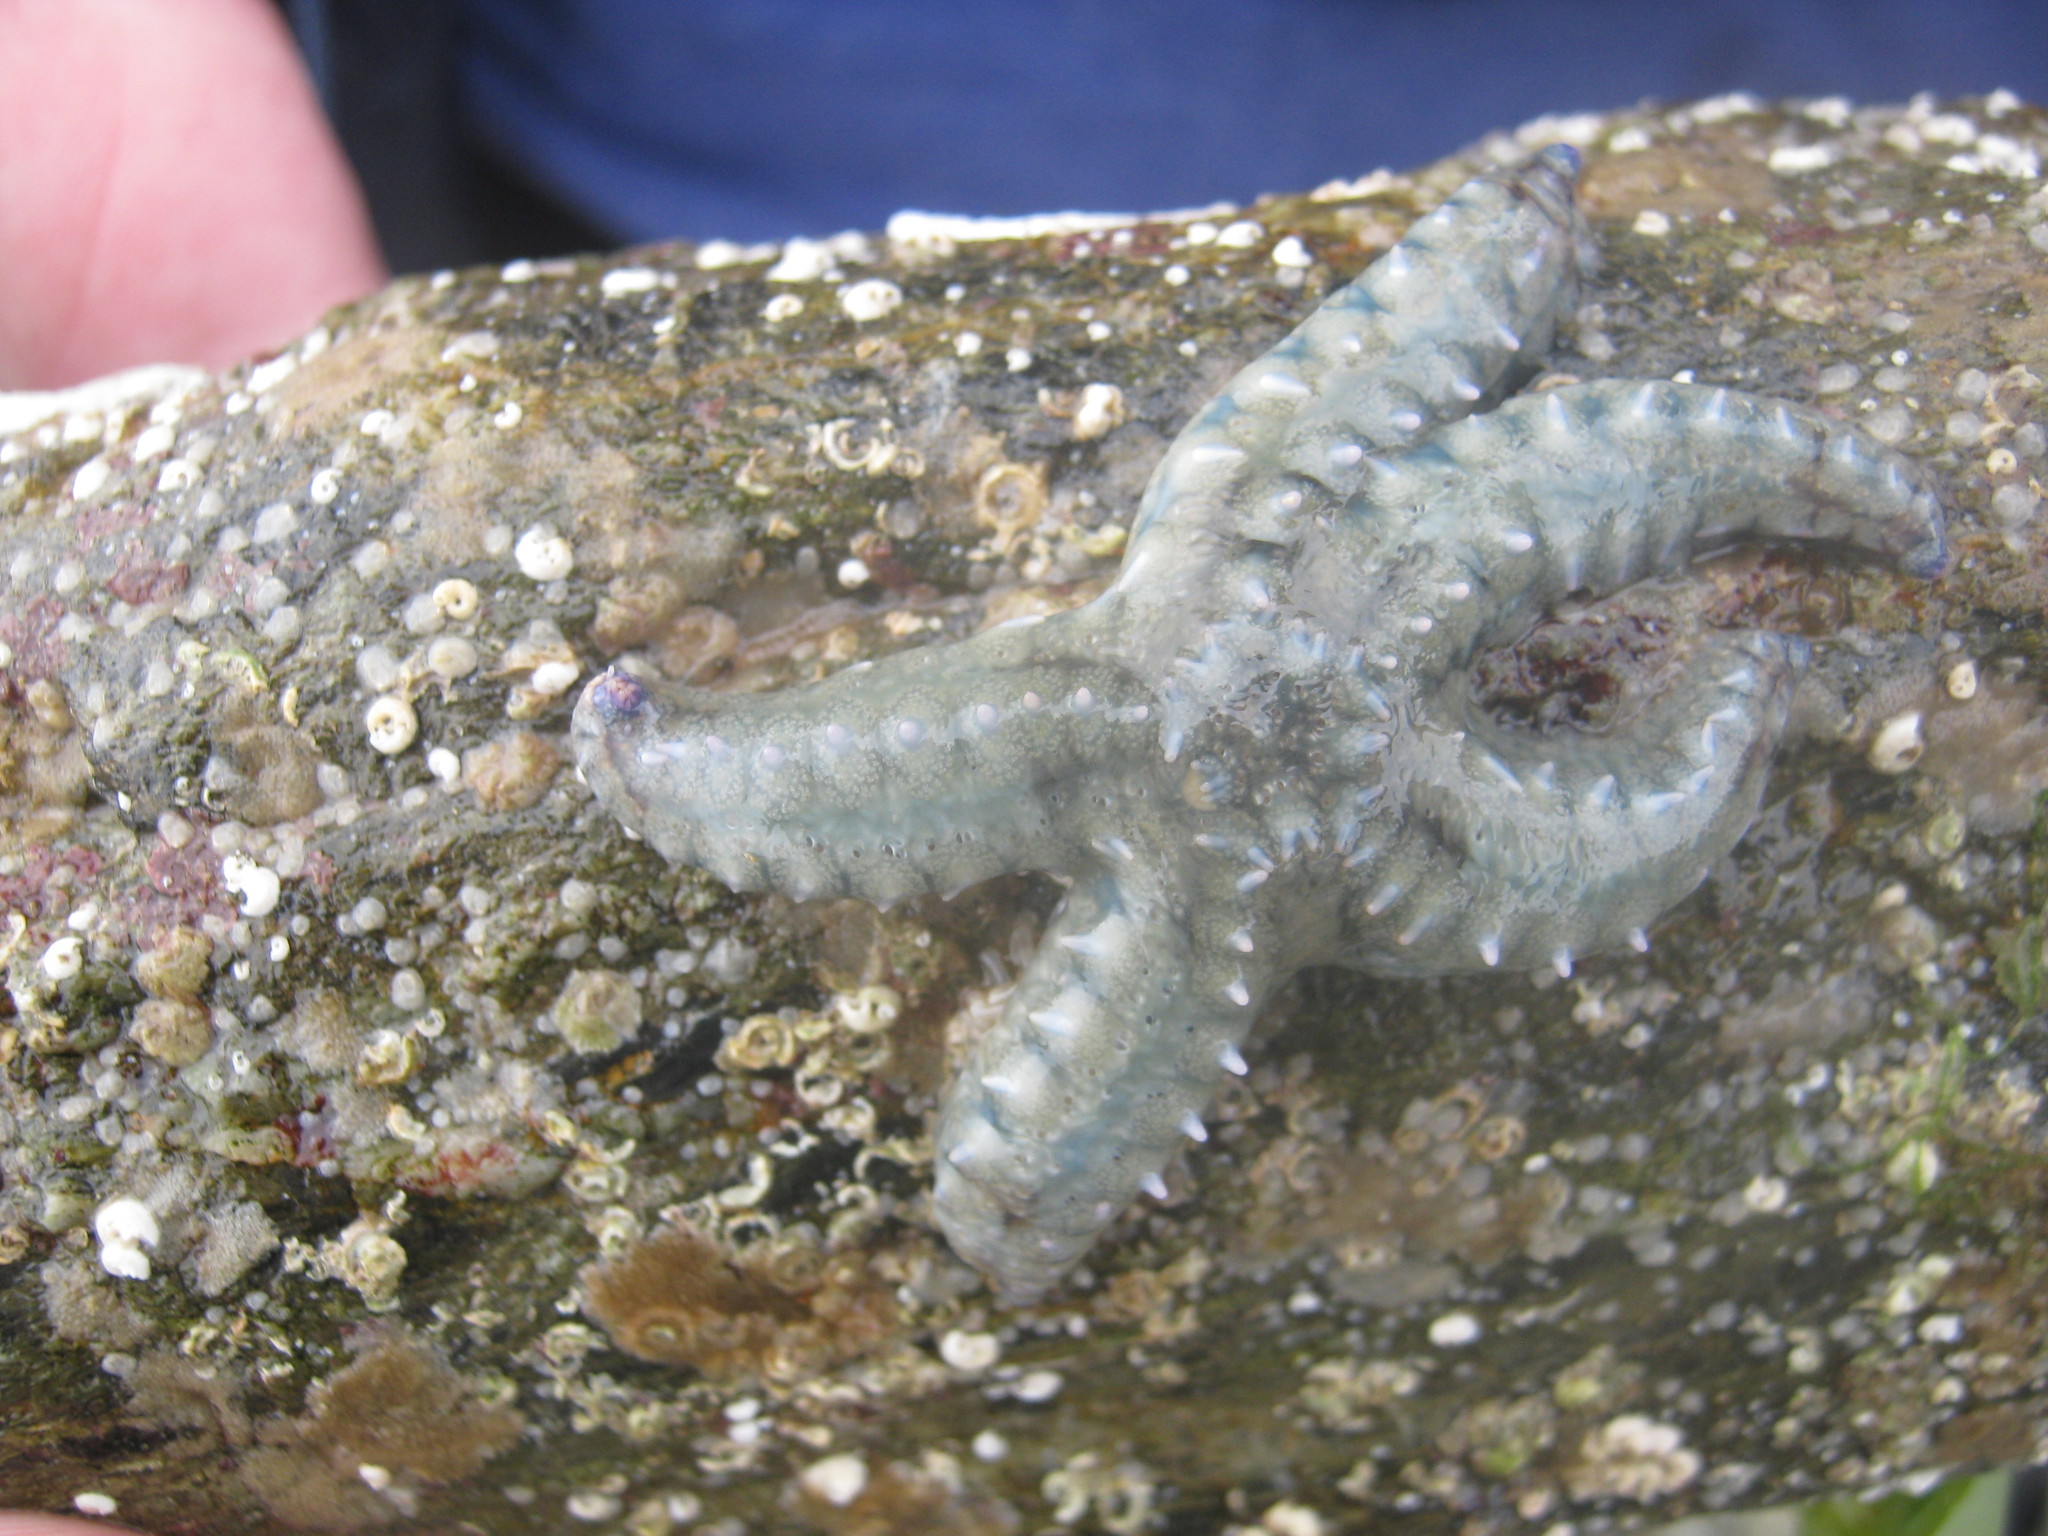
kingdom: Animalia
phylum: Echinodermata
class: Asteroidea
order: Forcipulatida
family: Asteriidae
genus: Marthasterias
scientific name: Marthasterias glacialis
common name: Spiny starfish
